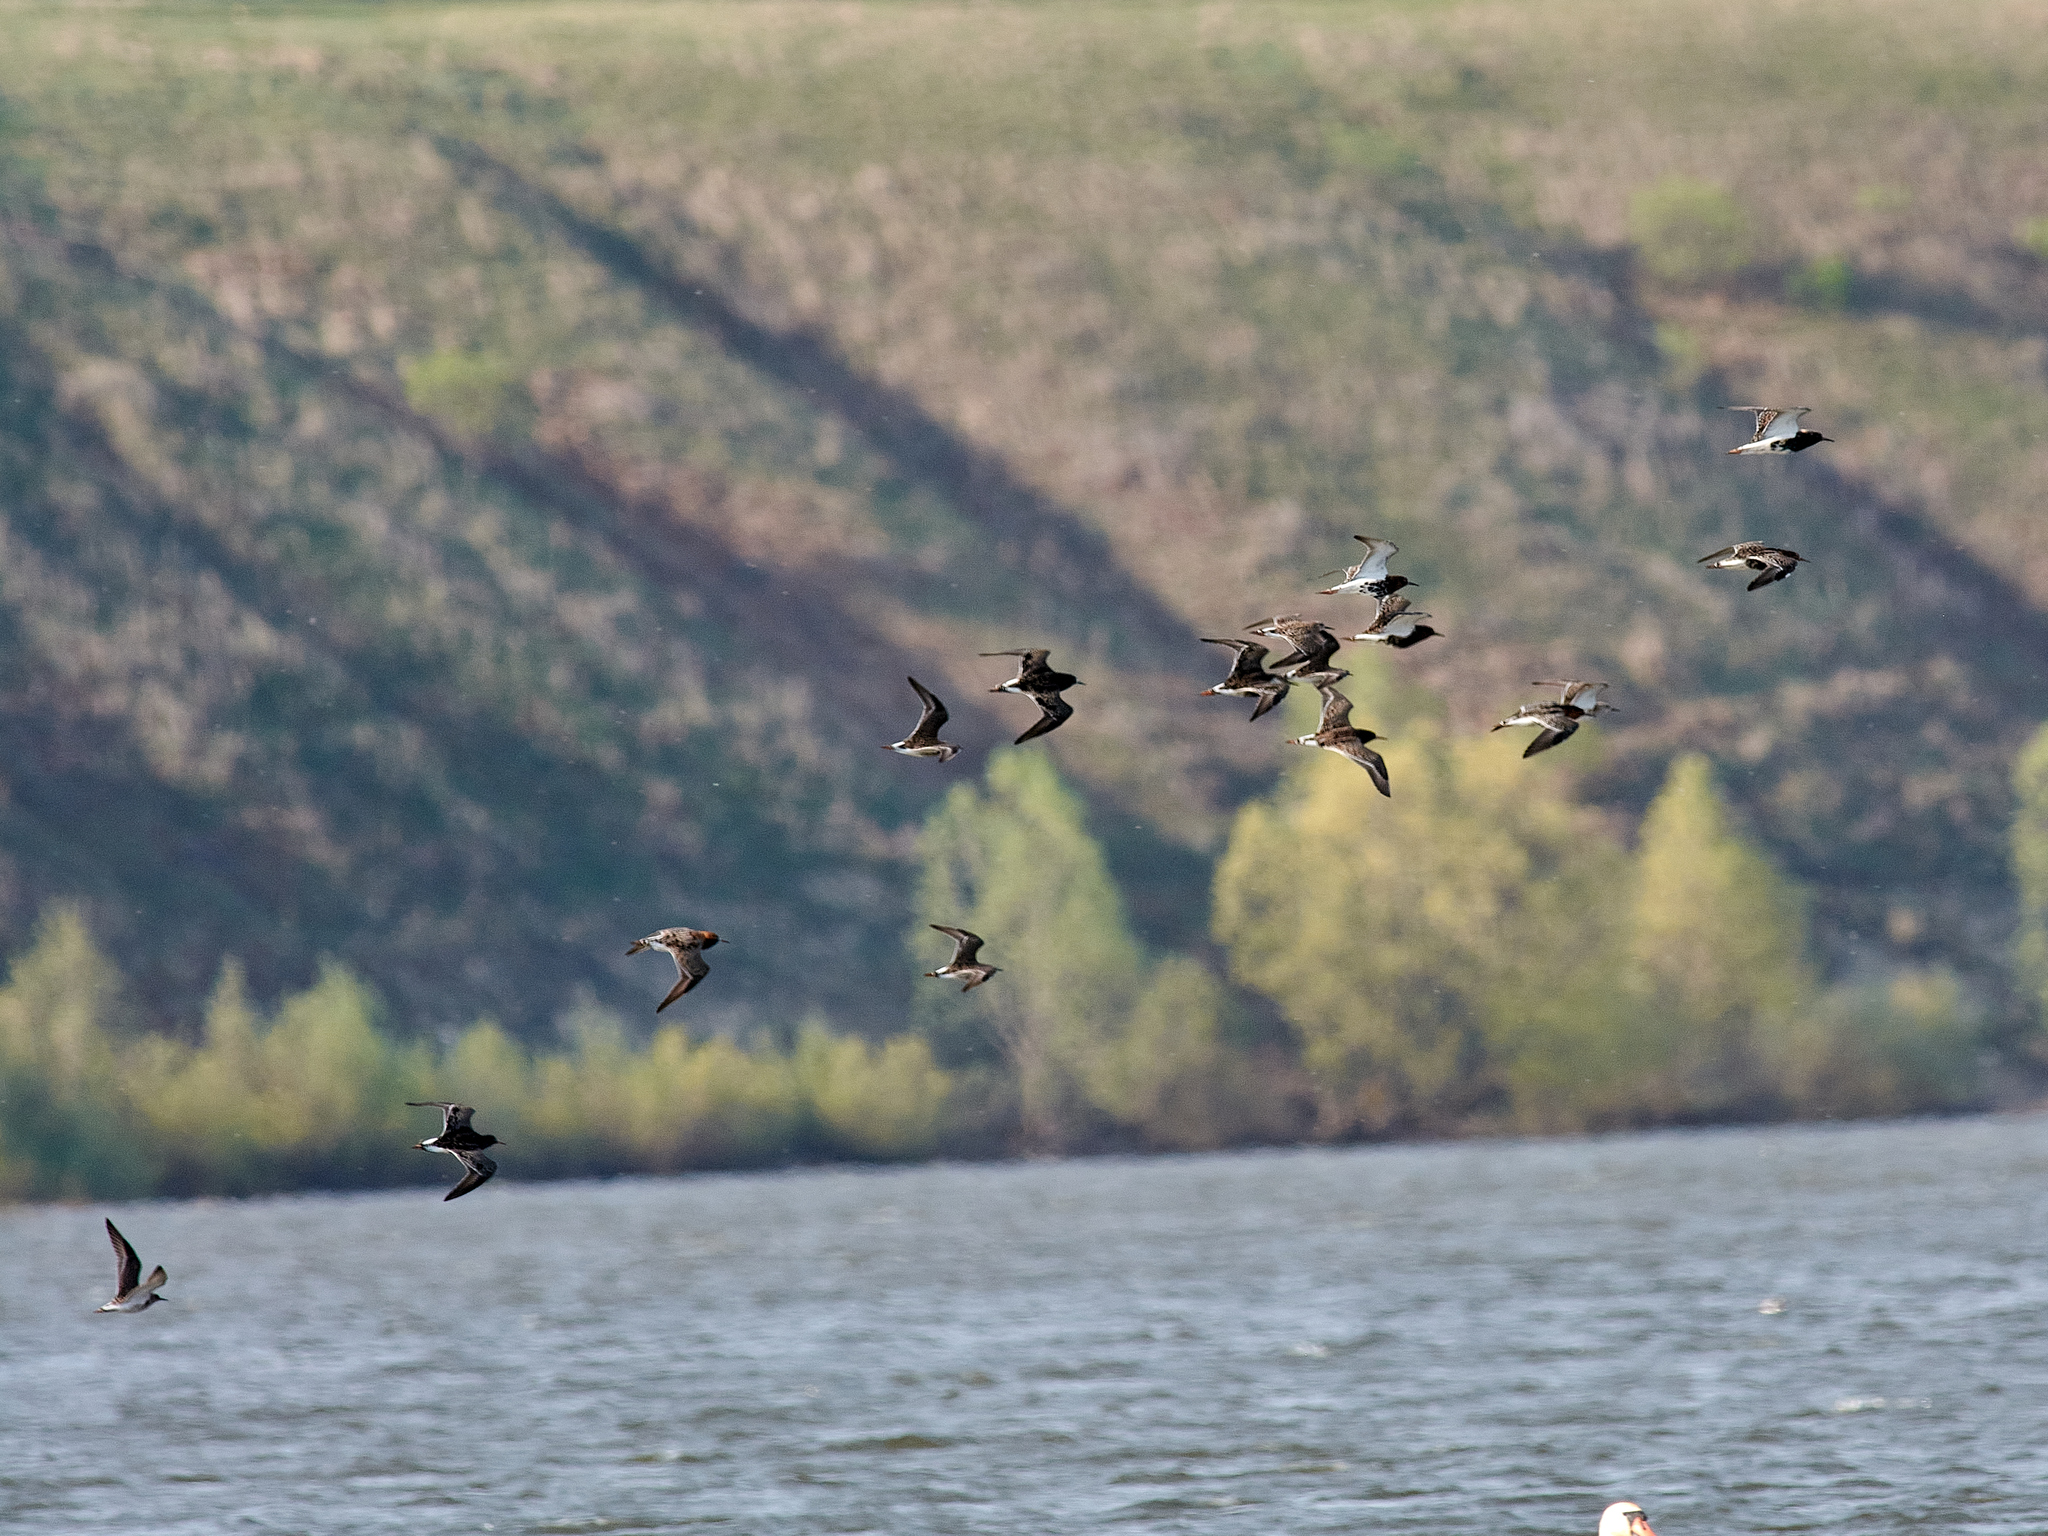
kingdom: Animalia
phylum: Chordata
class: Aves
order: Charadriiformes
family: Scolopacidae
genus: Calidris
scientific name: Calidris pugnax
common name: Ruff
